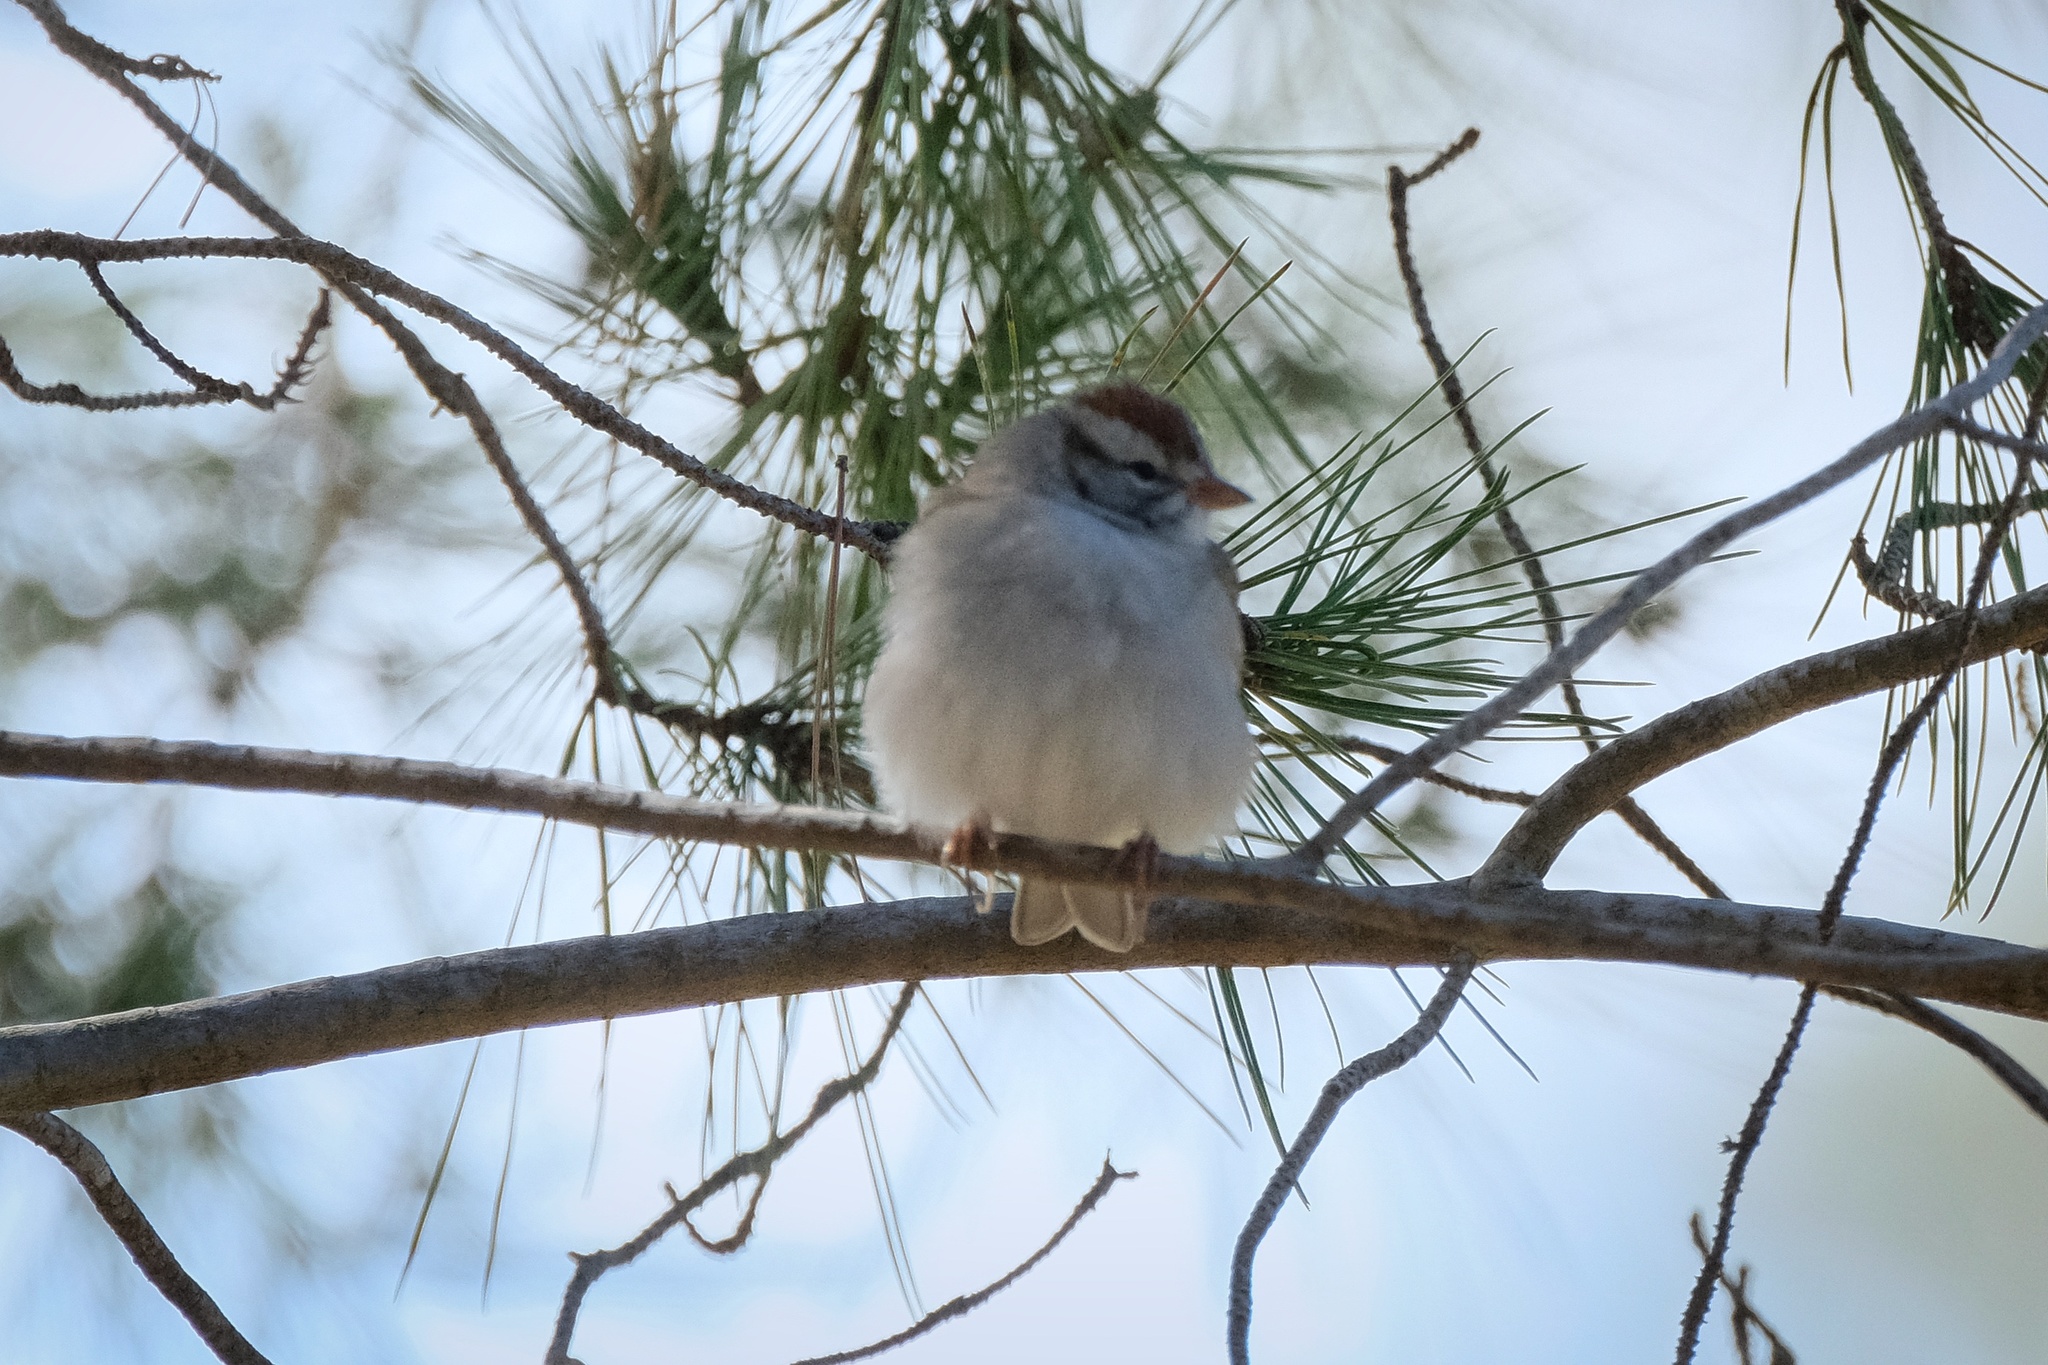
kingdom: Animalia
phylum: Chordata
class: Aves
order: Passeriformes
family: Passerellidae
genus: Spizella
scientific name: Spizella passerina
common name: Chipping sparrow
